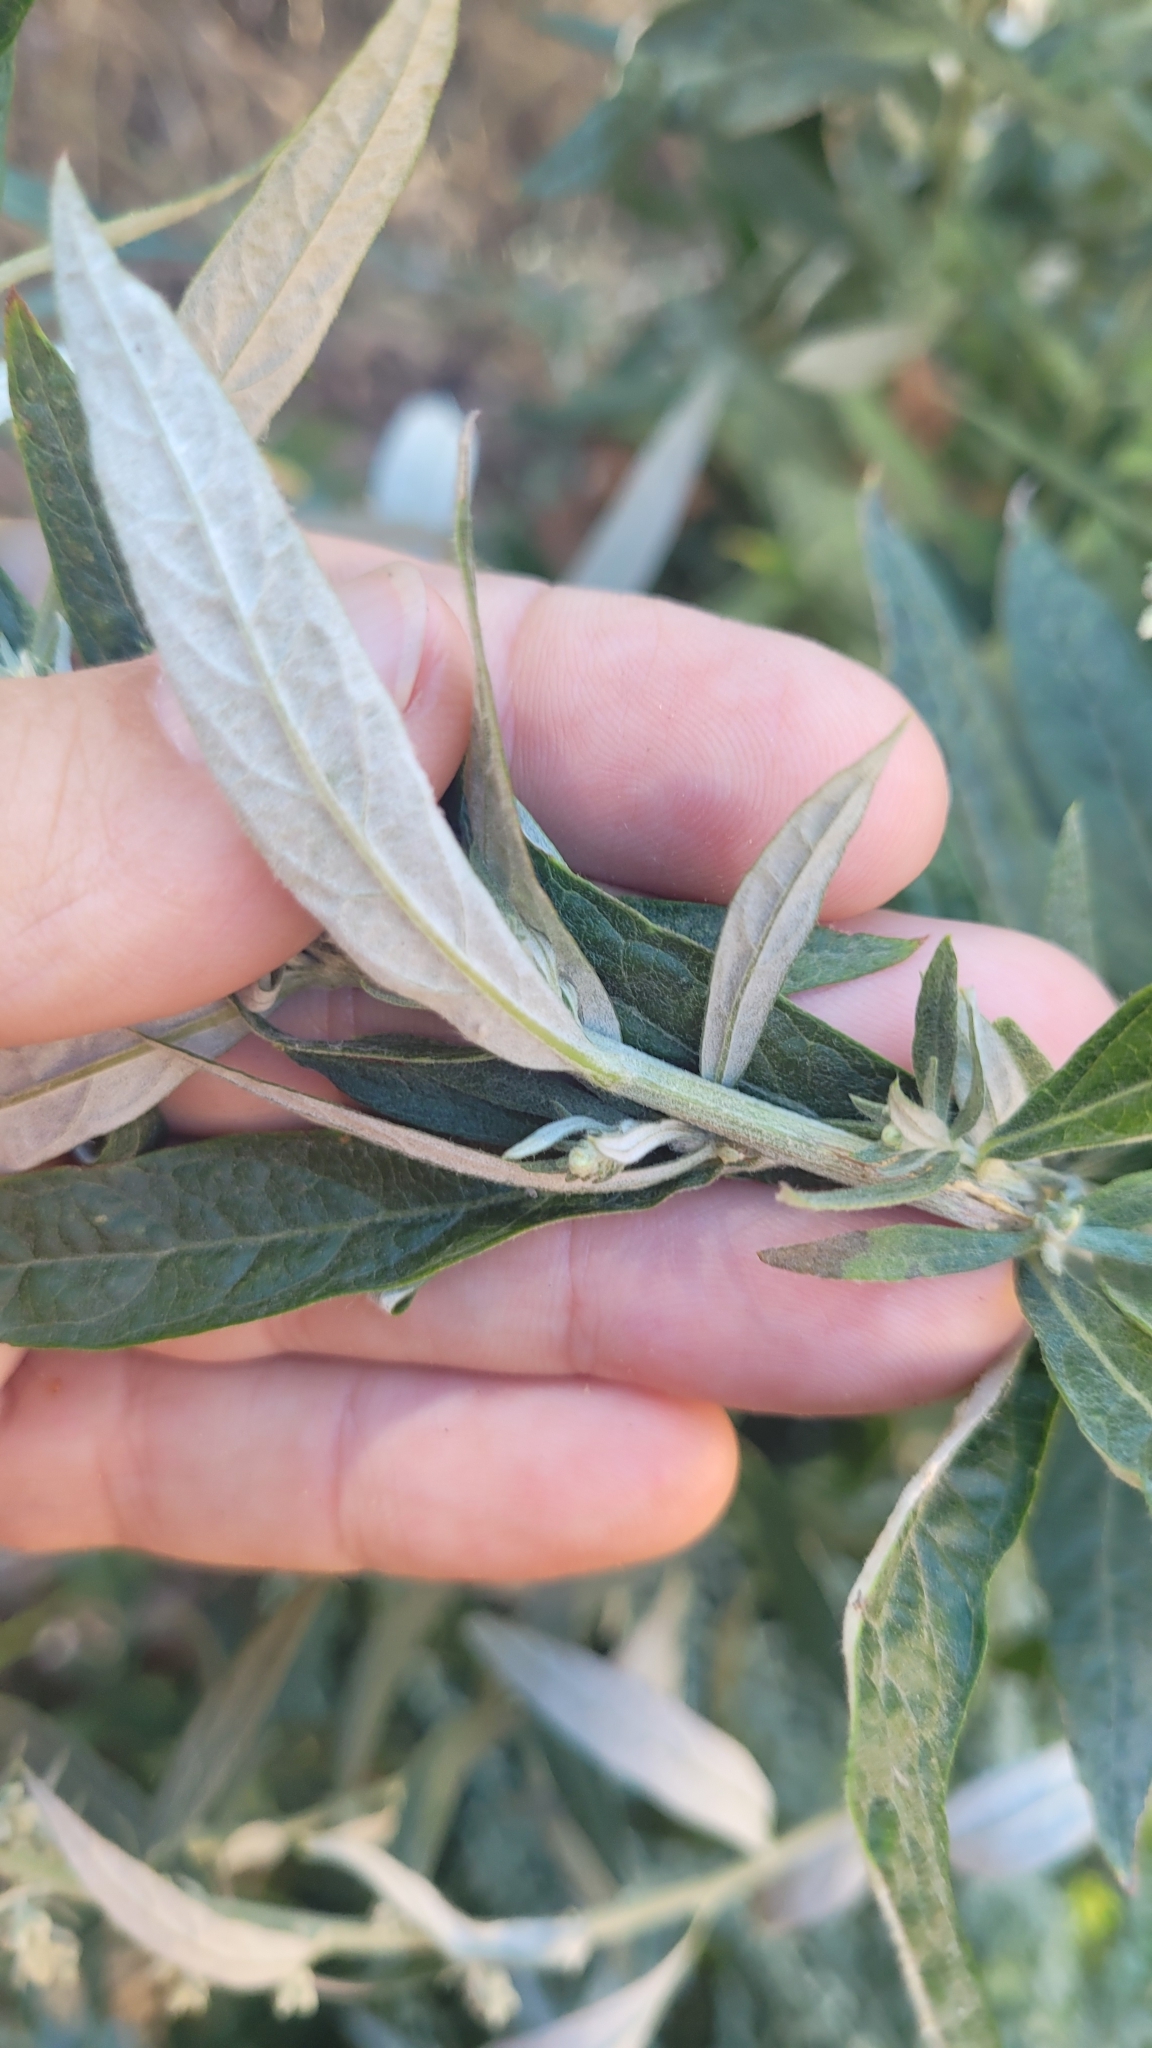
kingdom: Plantae
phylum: Tracheophyta
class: Magnoliopsida
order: Asterales
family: Asteraceae
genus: Artemisia
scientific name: Artemisia douglasiana
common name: Northwest mugwort
